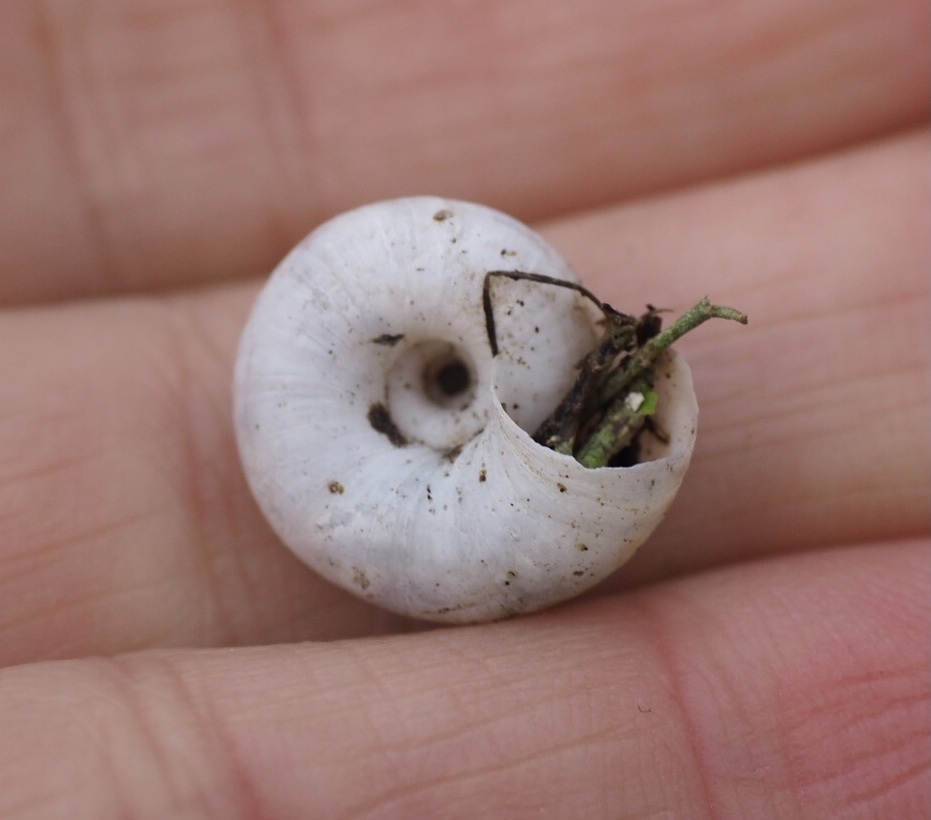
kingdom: Animalia
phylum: Mollusca
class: Gastropoda
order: Stylommatophora
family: Geomitridae
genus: Xerolenta
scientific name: Xerolenta obvia
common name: White heath snail
